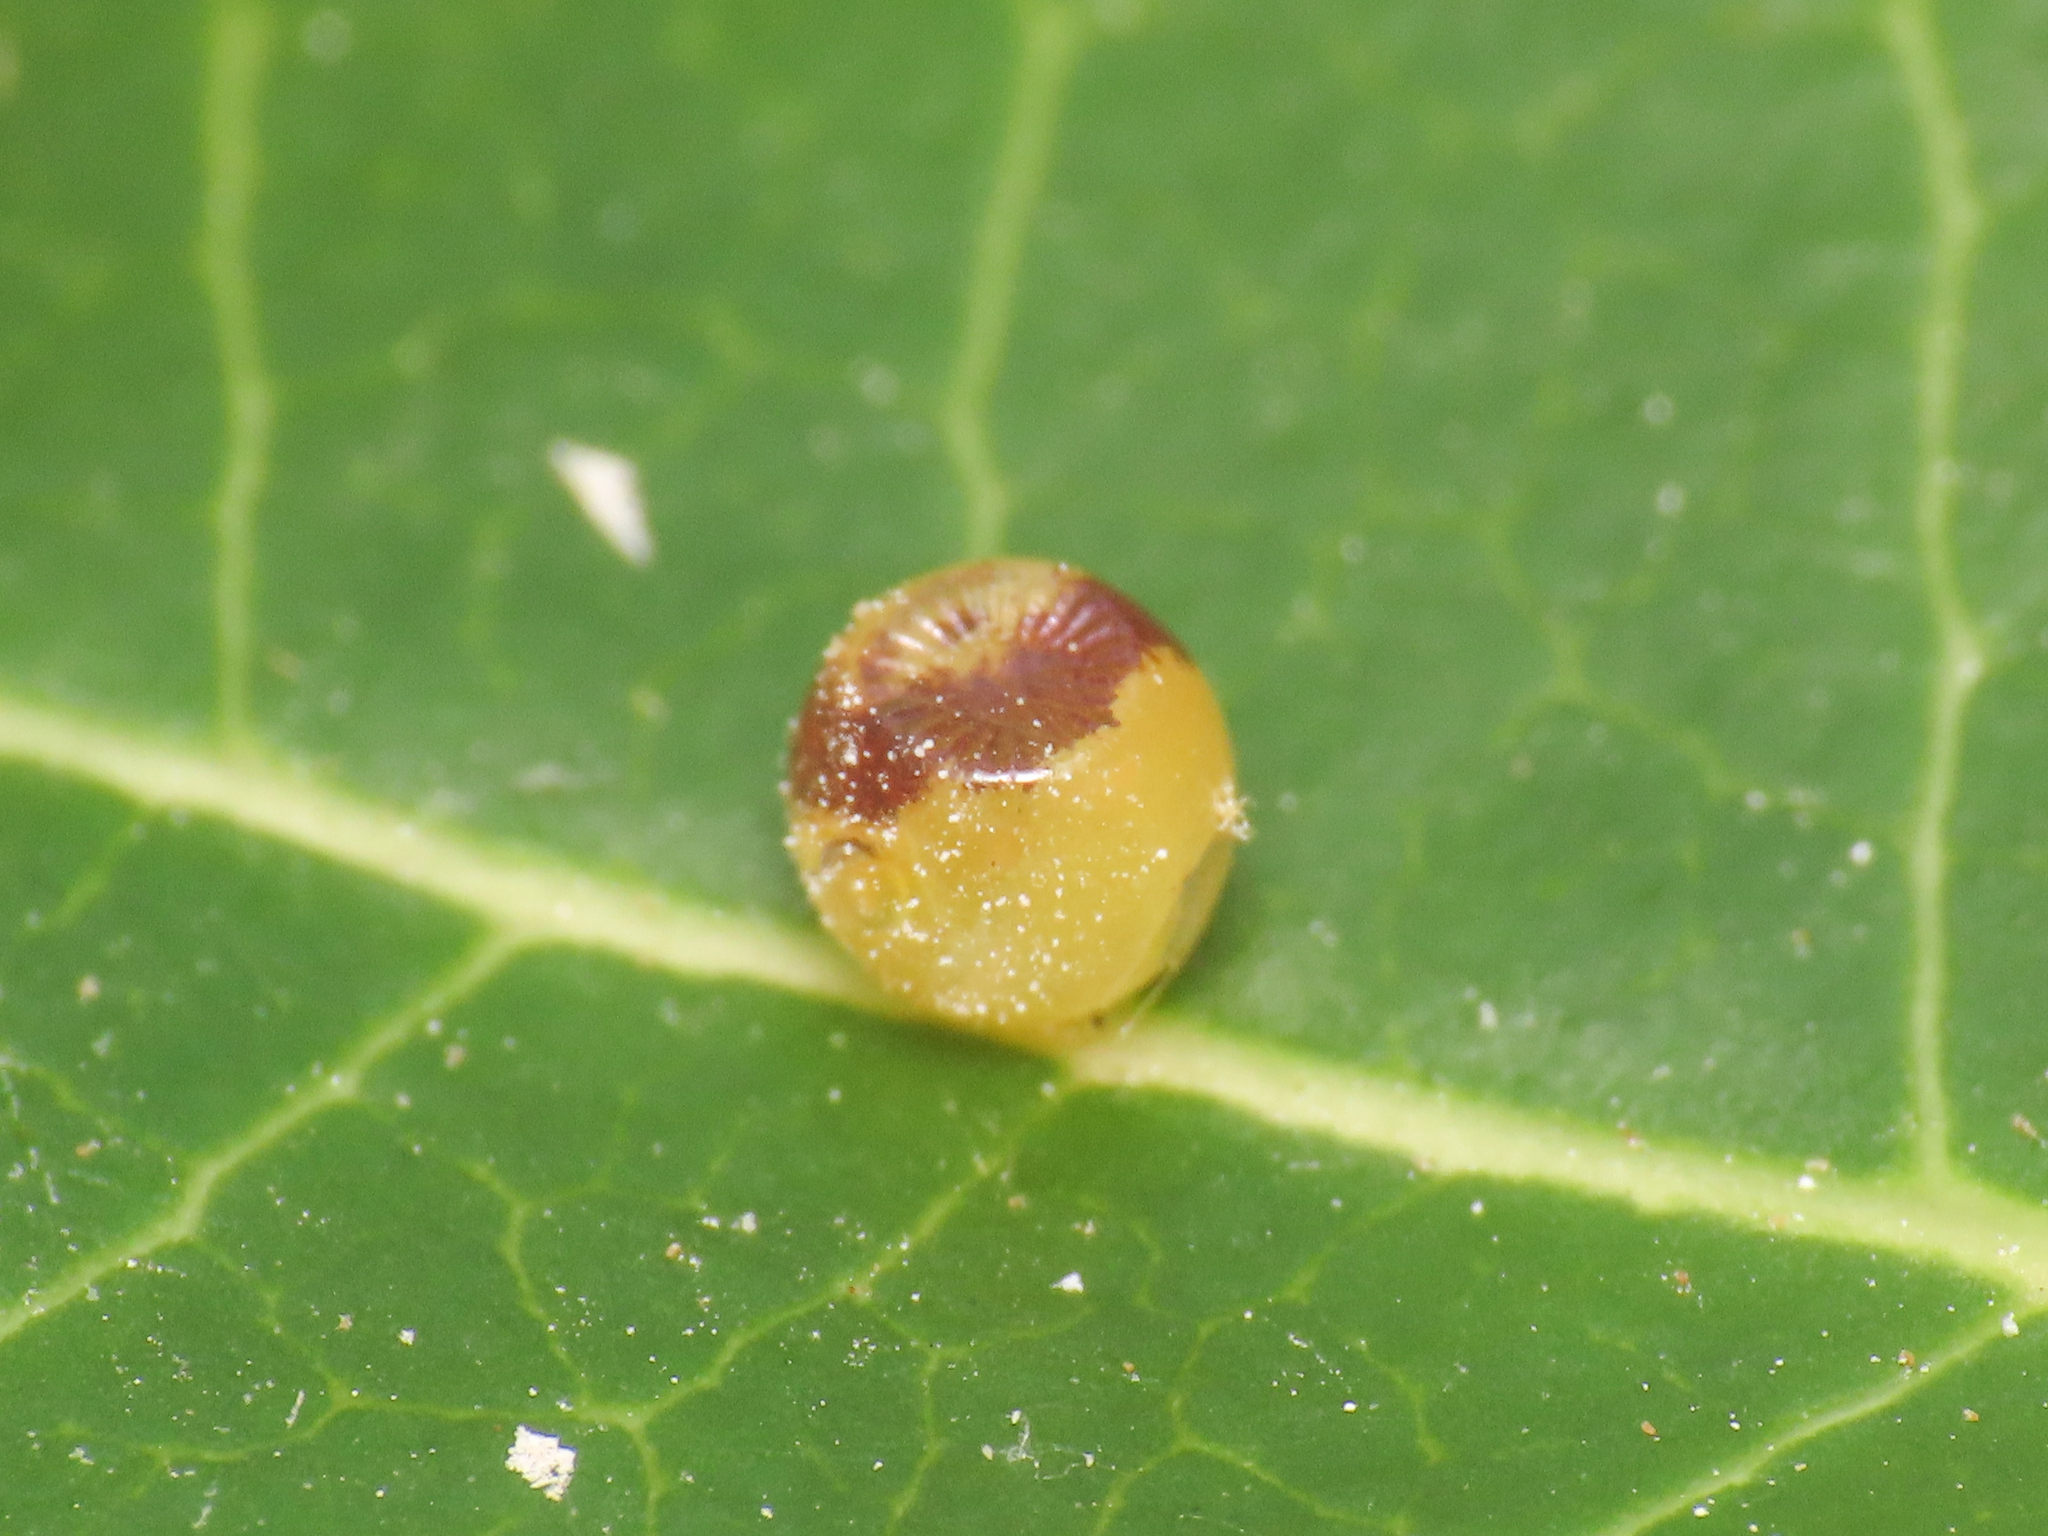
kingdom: Animalia
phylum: Arthropoda
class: Insecta
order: Lepidoptera
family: Nymphalidae
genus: Charaxes
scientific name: Charaxes jasius
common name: Two tailed pasha
